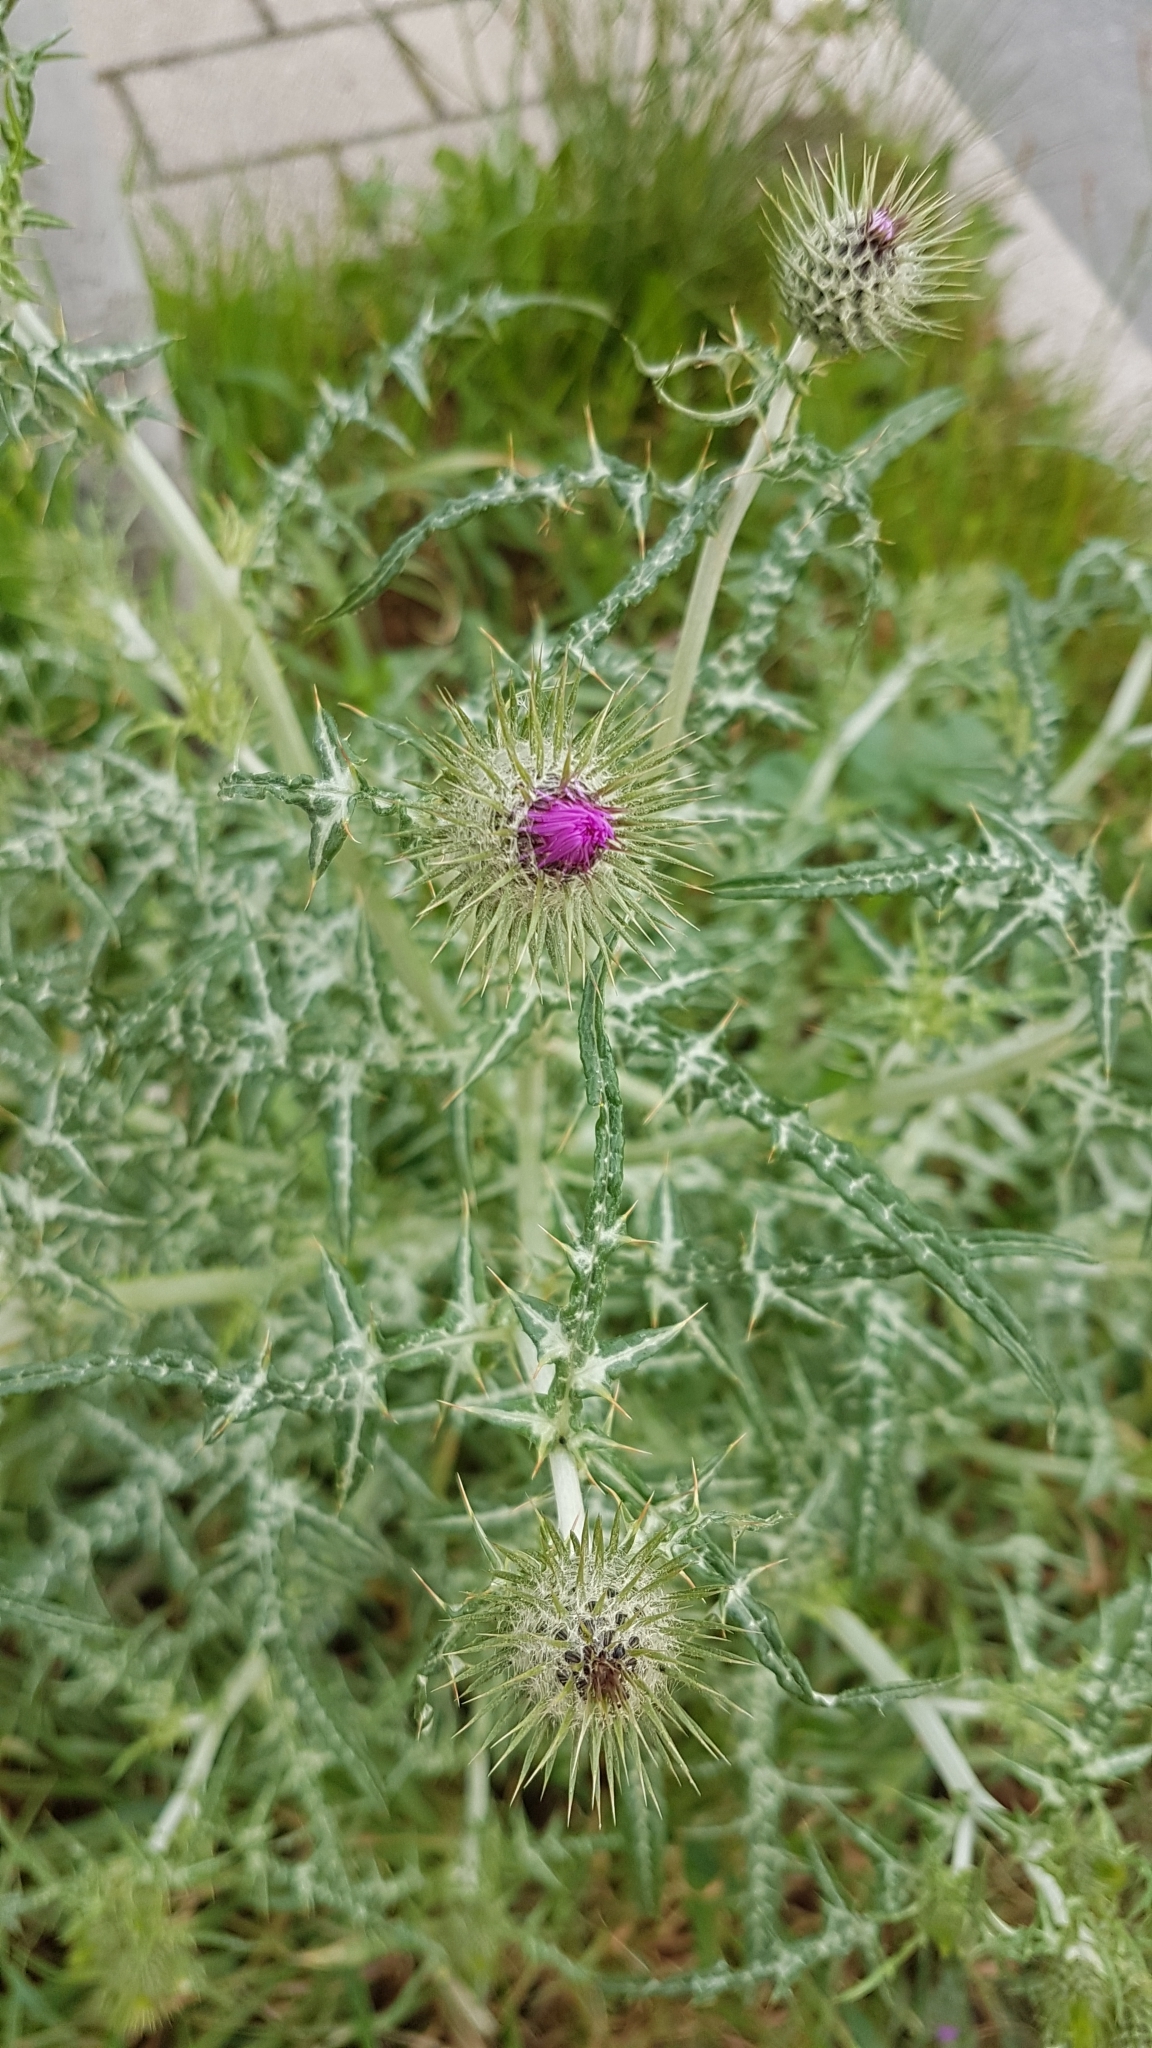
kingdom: Plantae
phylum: Tracheophyta
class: Magnoliopsida
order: Asterales
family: Asteraceae
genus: Galactites
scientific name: Galactites tomentosa
